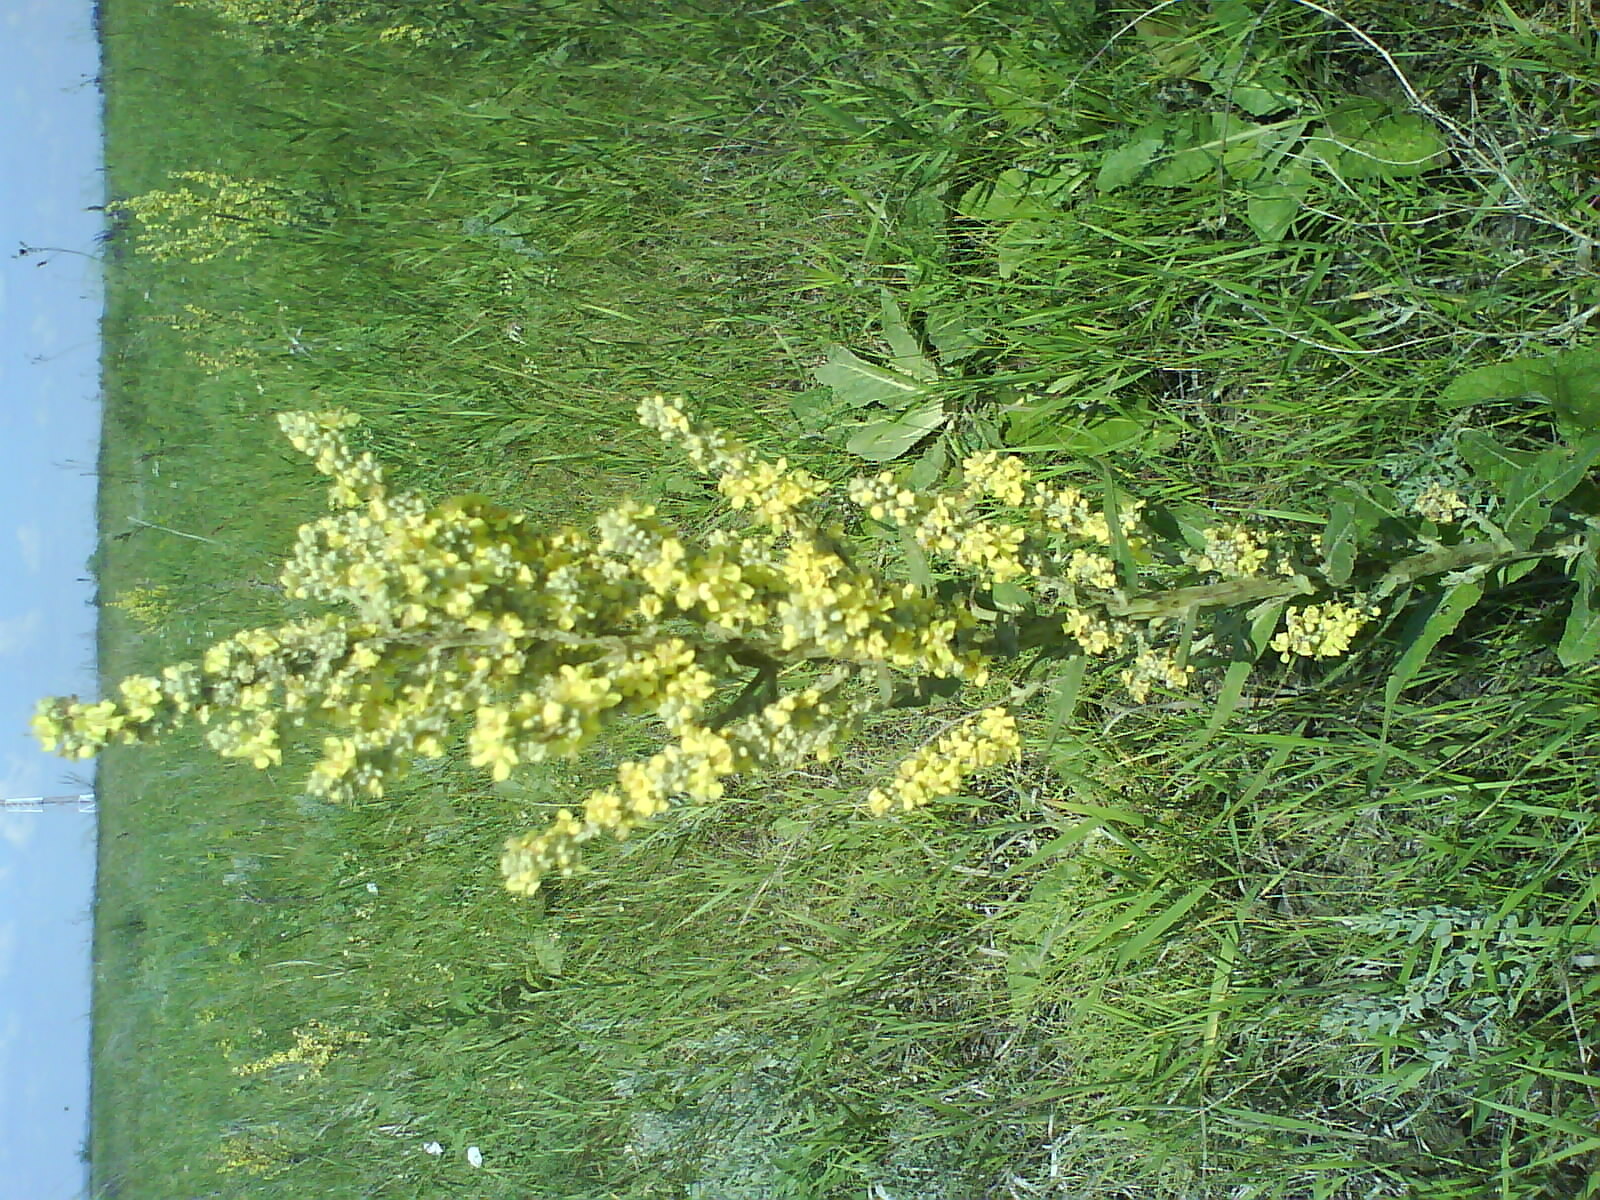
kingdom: Plantae
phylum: Tracheophyta
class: Magnoliopsida
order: Lamiales
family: Scrophulariaceae
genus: Verbascum
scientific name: Verbascum lychnitis
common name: White mullein
